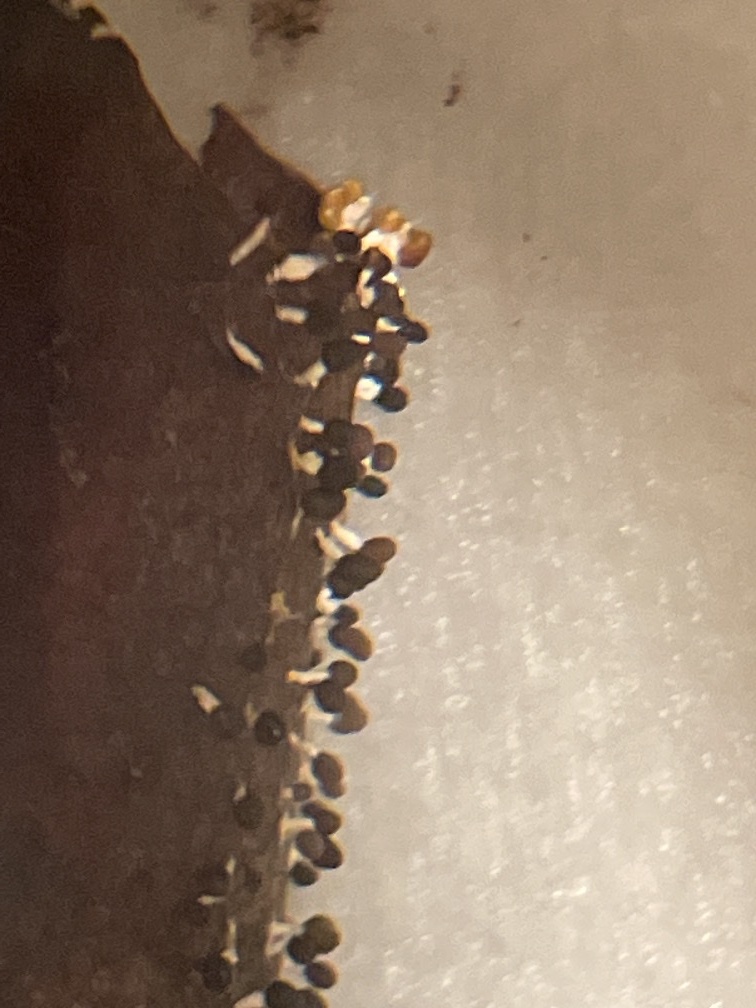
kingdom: Protozoa
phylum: Mycetozoa
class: Myxomycetes
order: Physarales
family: Didymiaceae
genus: Diachea
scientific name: Diachea leucopodia
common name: White-footed slime
